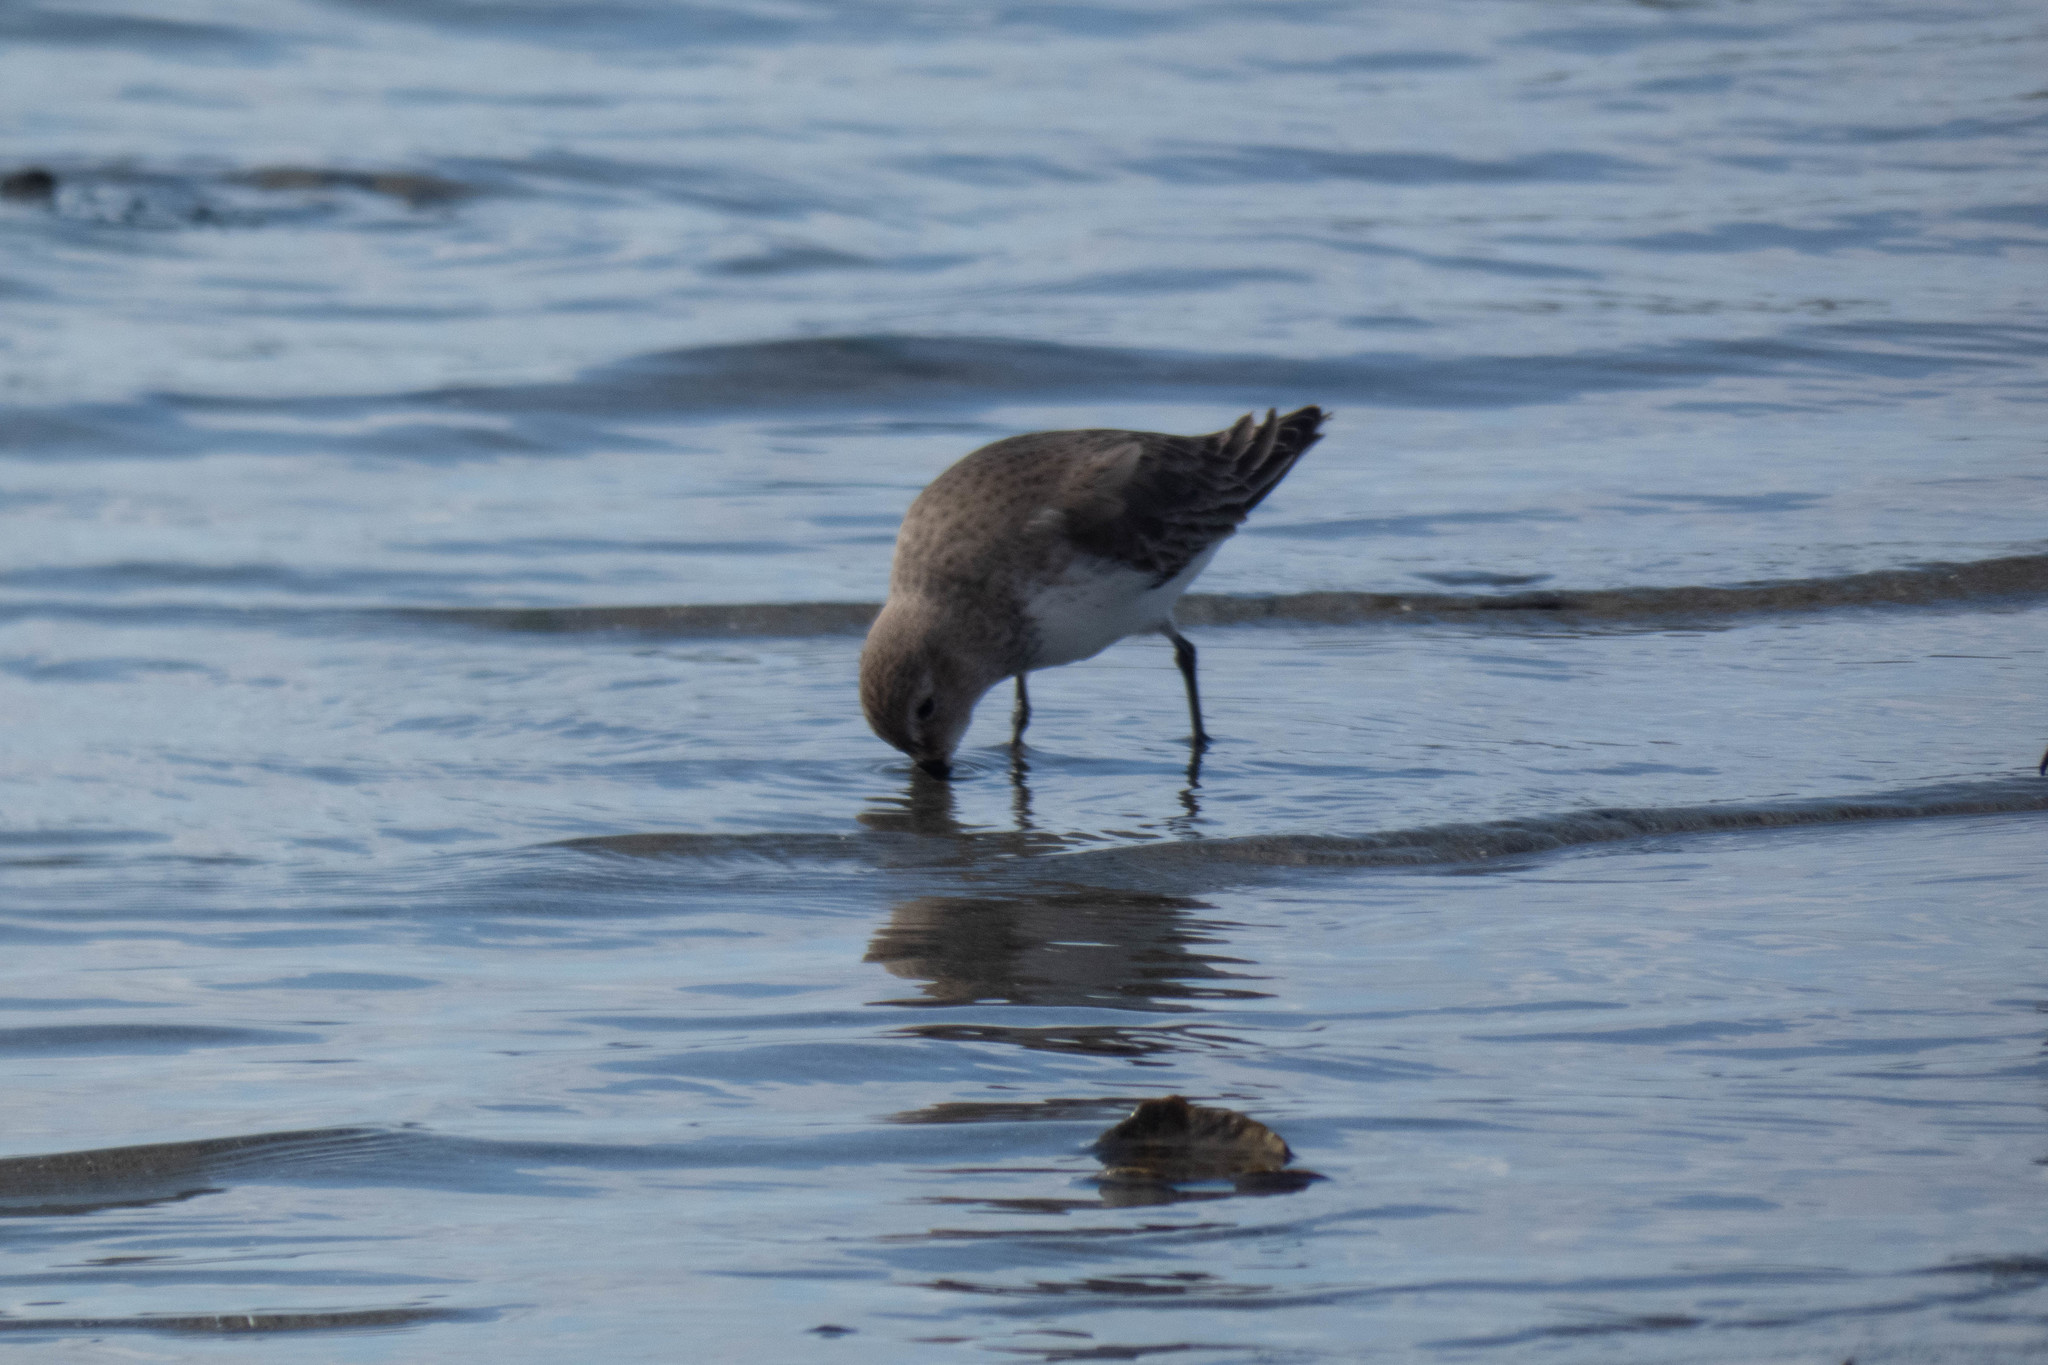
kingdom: Animalia
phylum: Chordata
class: Aves
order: Charadriiformes
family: Scolopacidae
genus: Calidris
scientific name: Calidris alpina
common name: Dunlin
